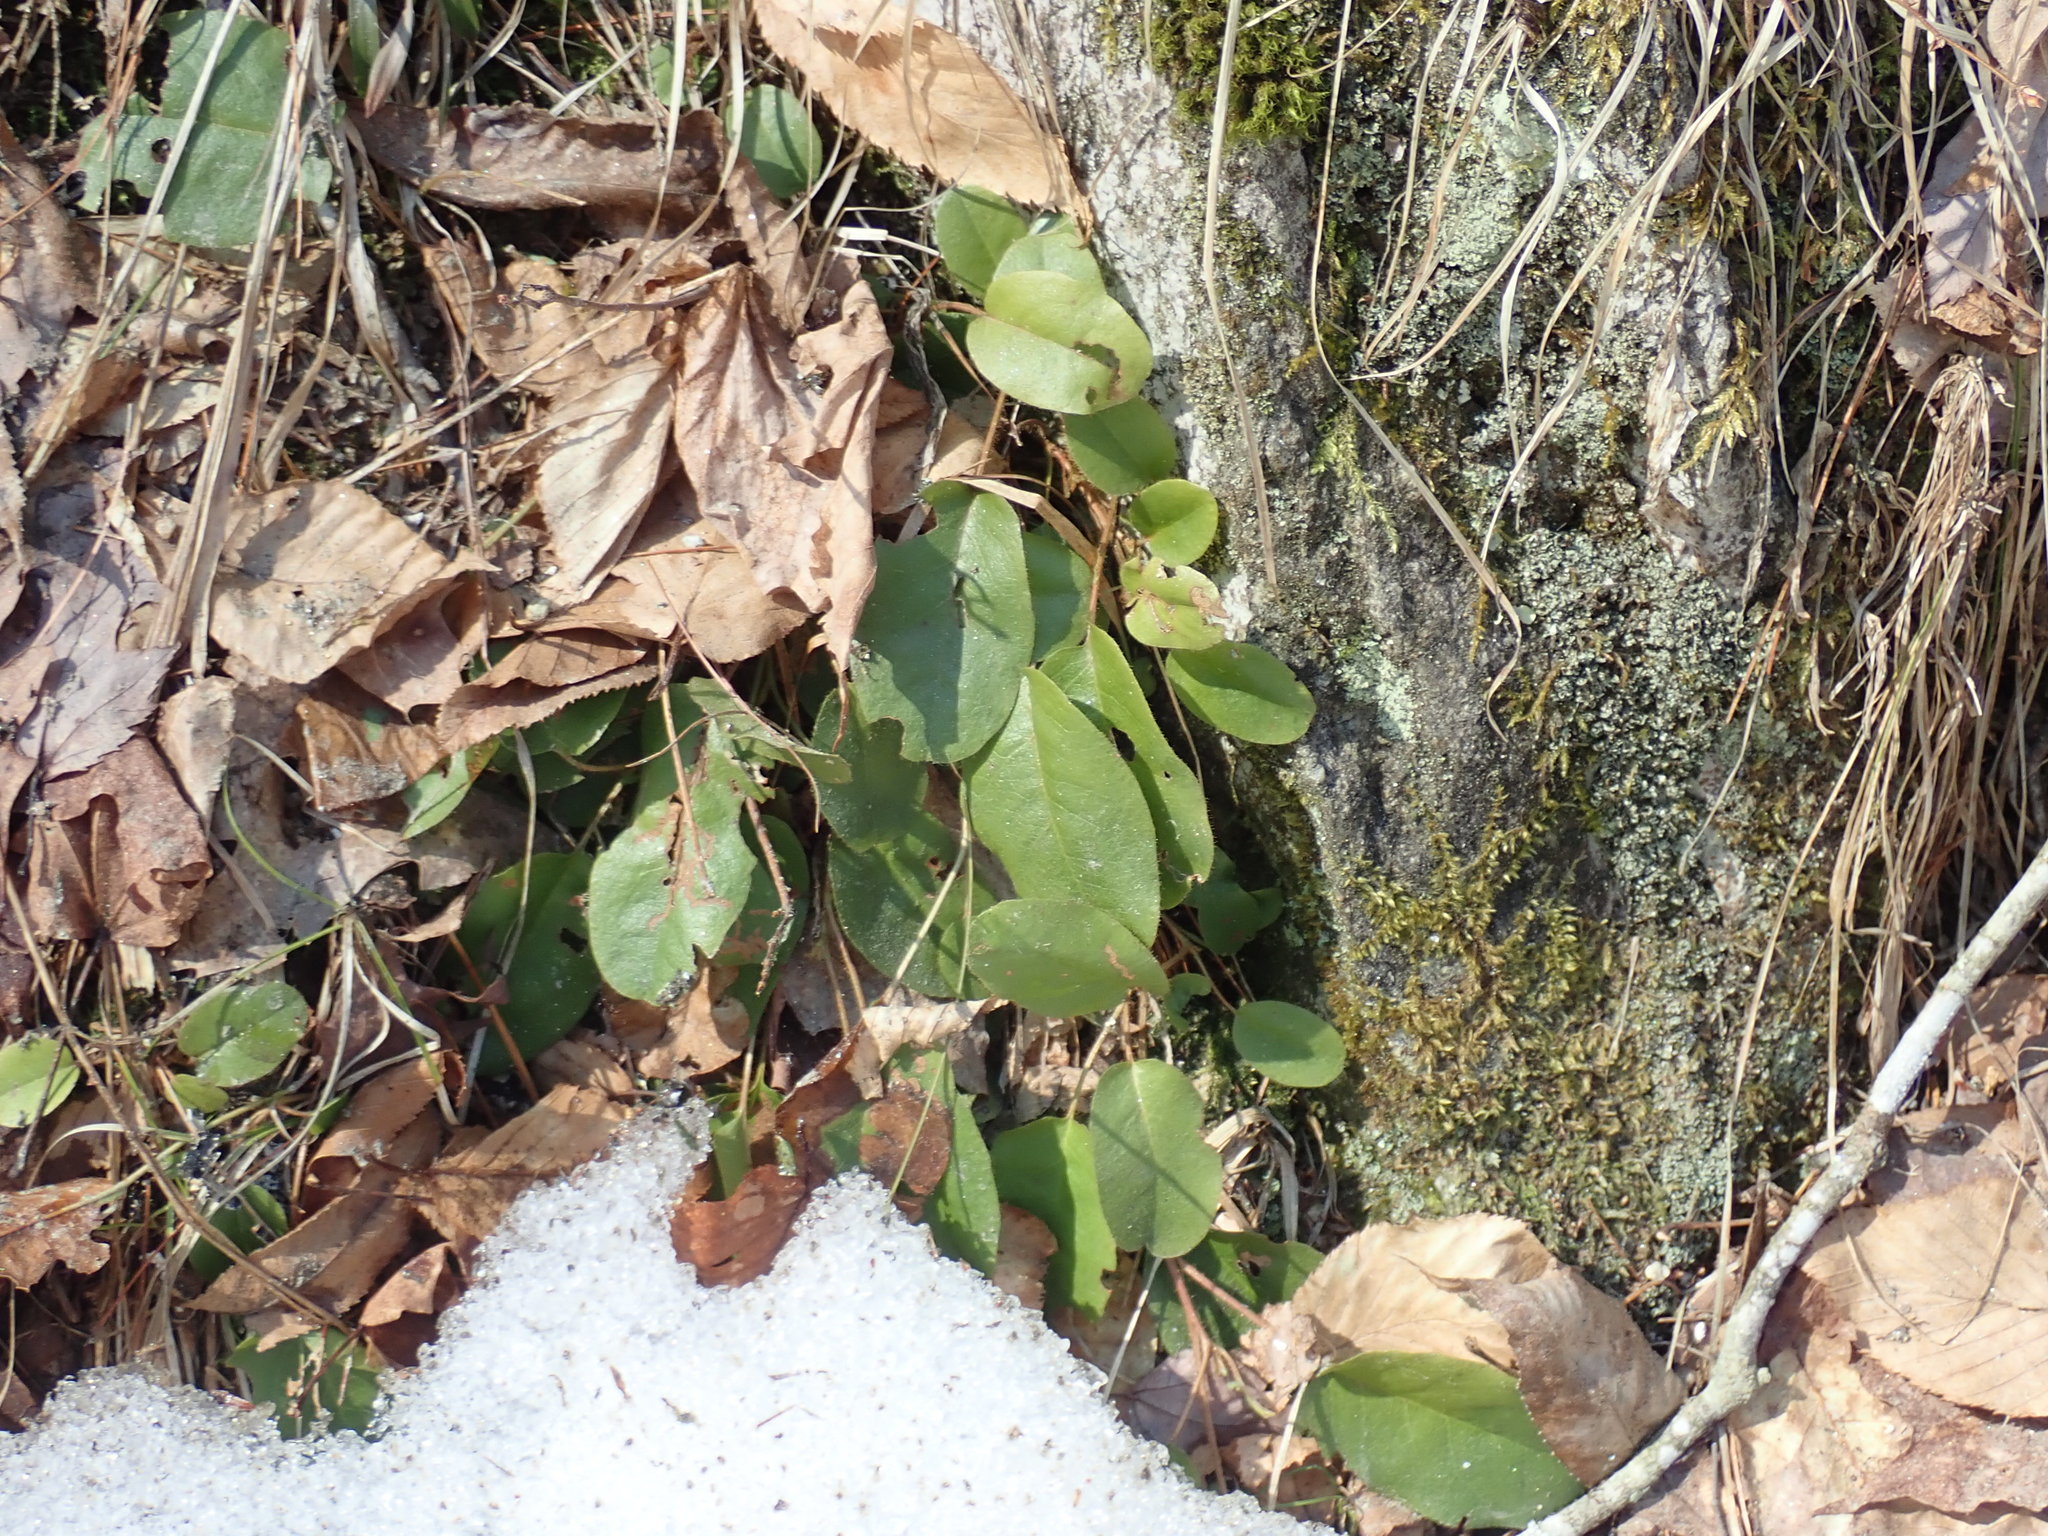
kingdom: Plantae
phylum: Tracheophyta
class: Magnoliopsida
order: Ericales
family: Ericaceae
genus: Epigaea
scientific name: Epigaea repens
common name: Gravelroot
